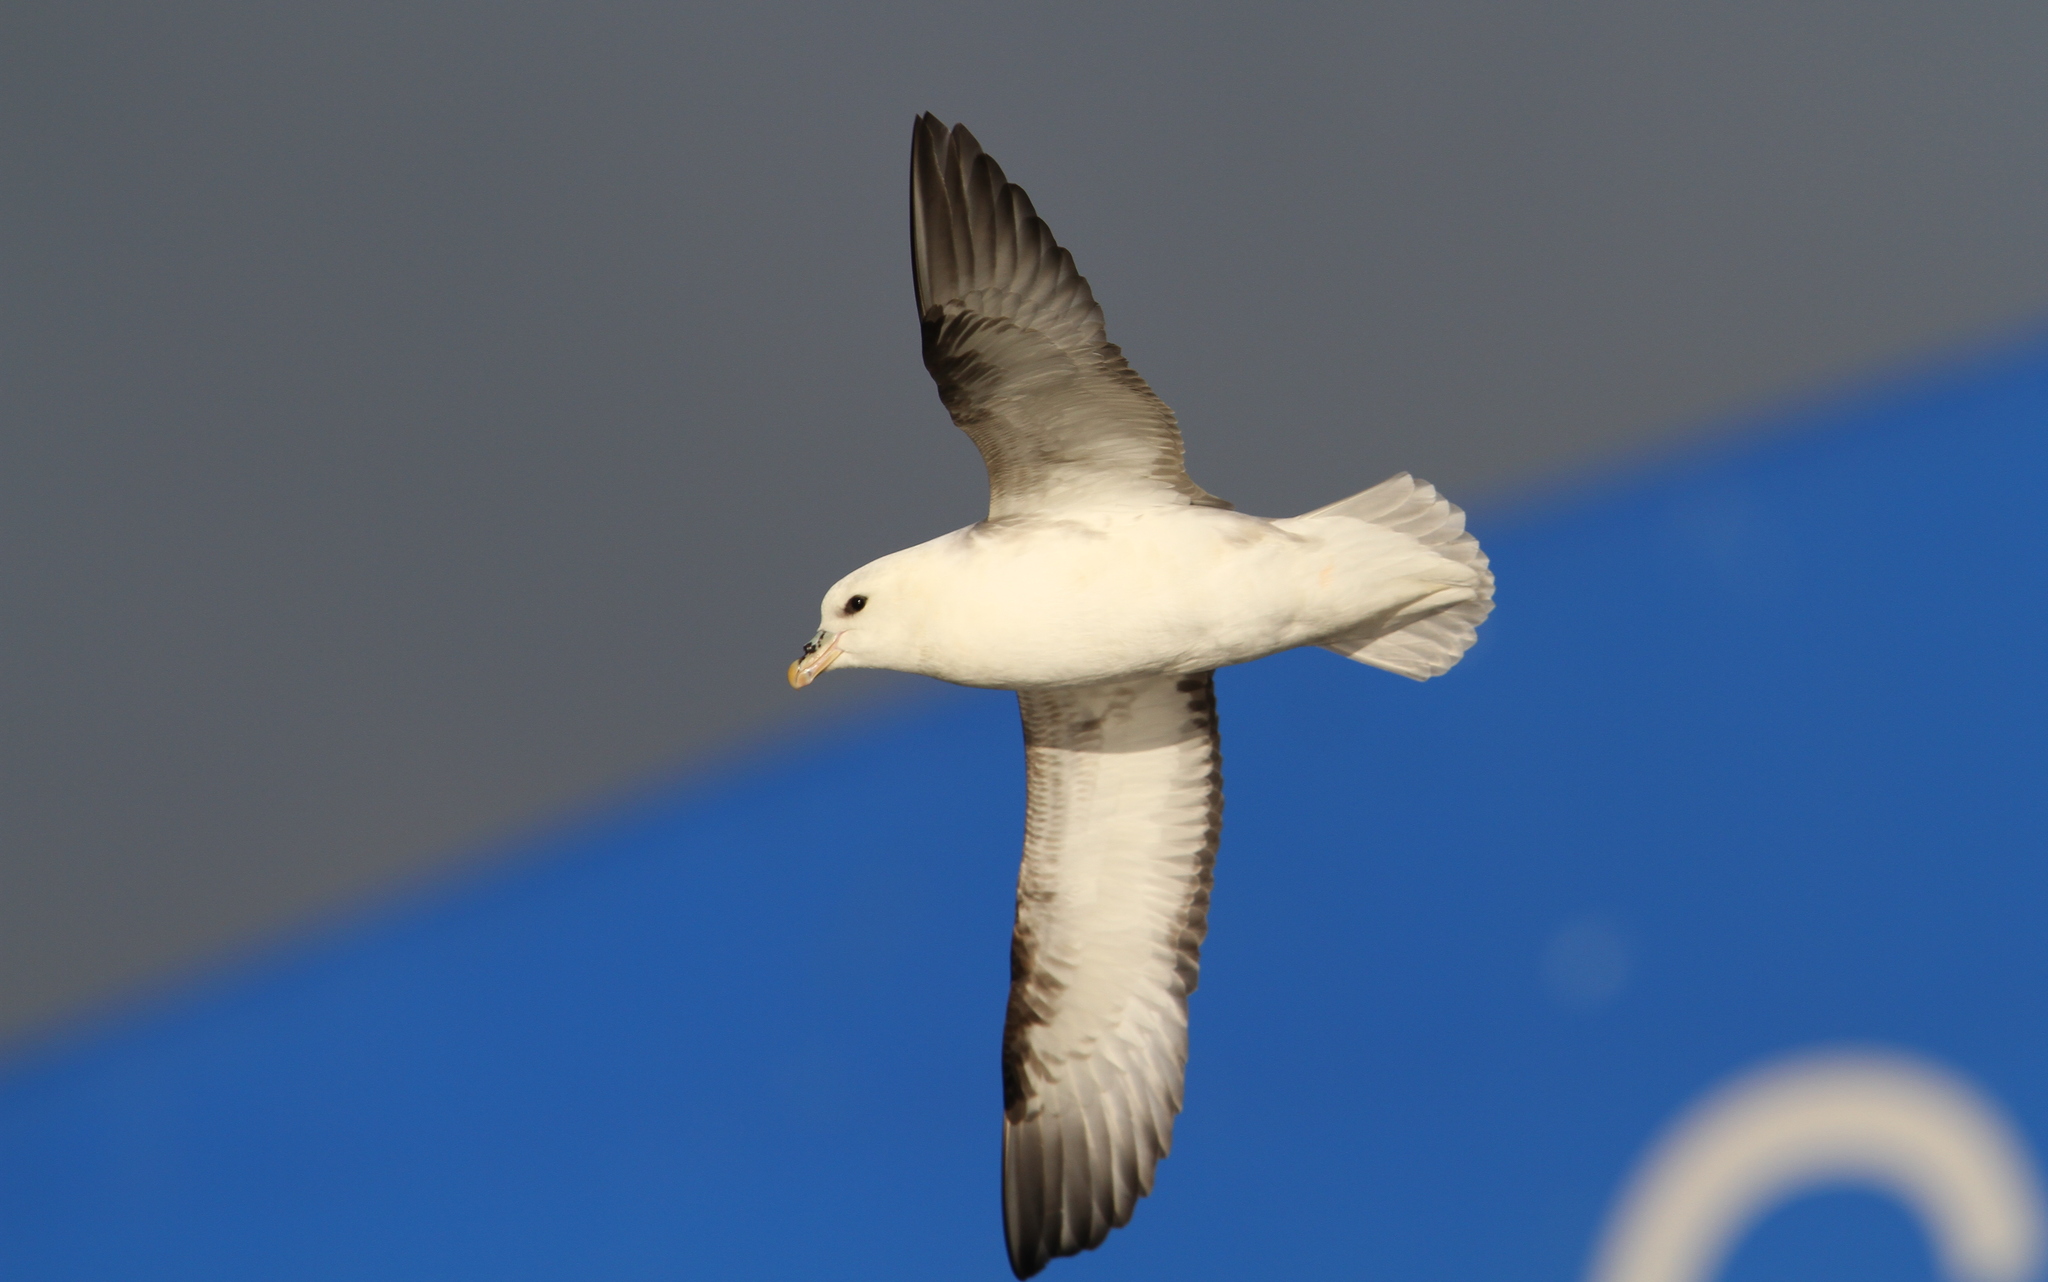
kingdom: Animalia
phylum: Chordata
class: Aves
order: Procellariiformes
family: Procellariidae
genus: Fulmarus
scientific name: Fulmarus glacialis
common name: Northern fulmar
